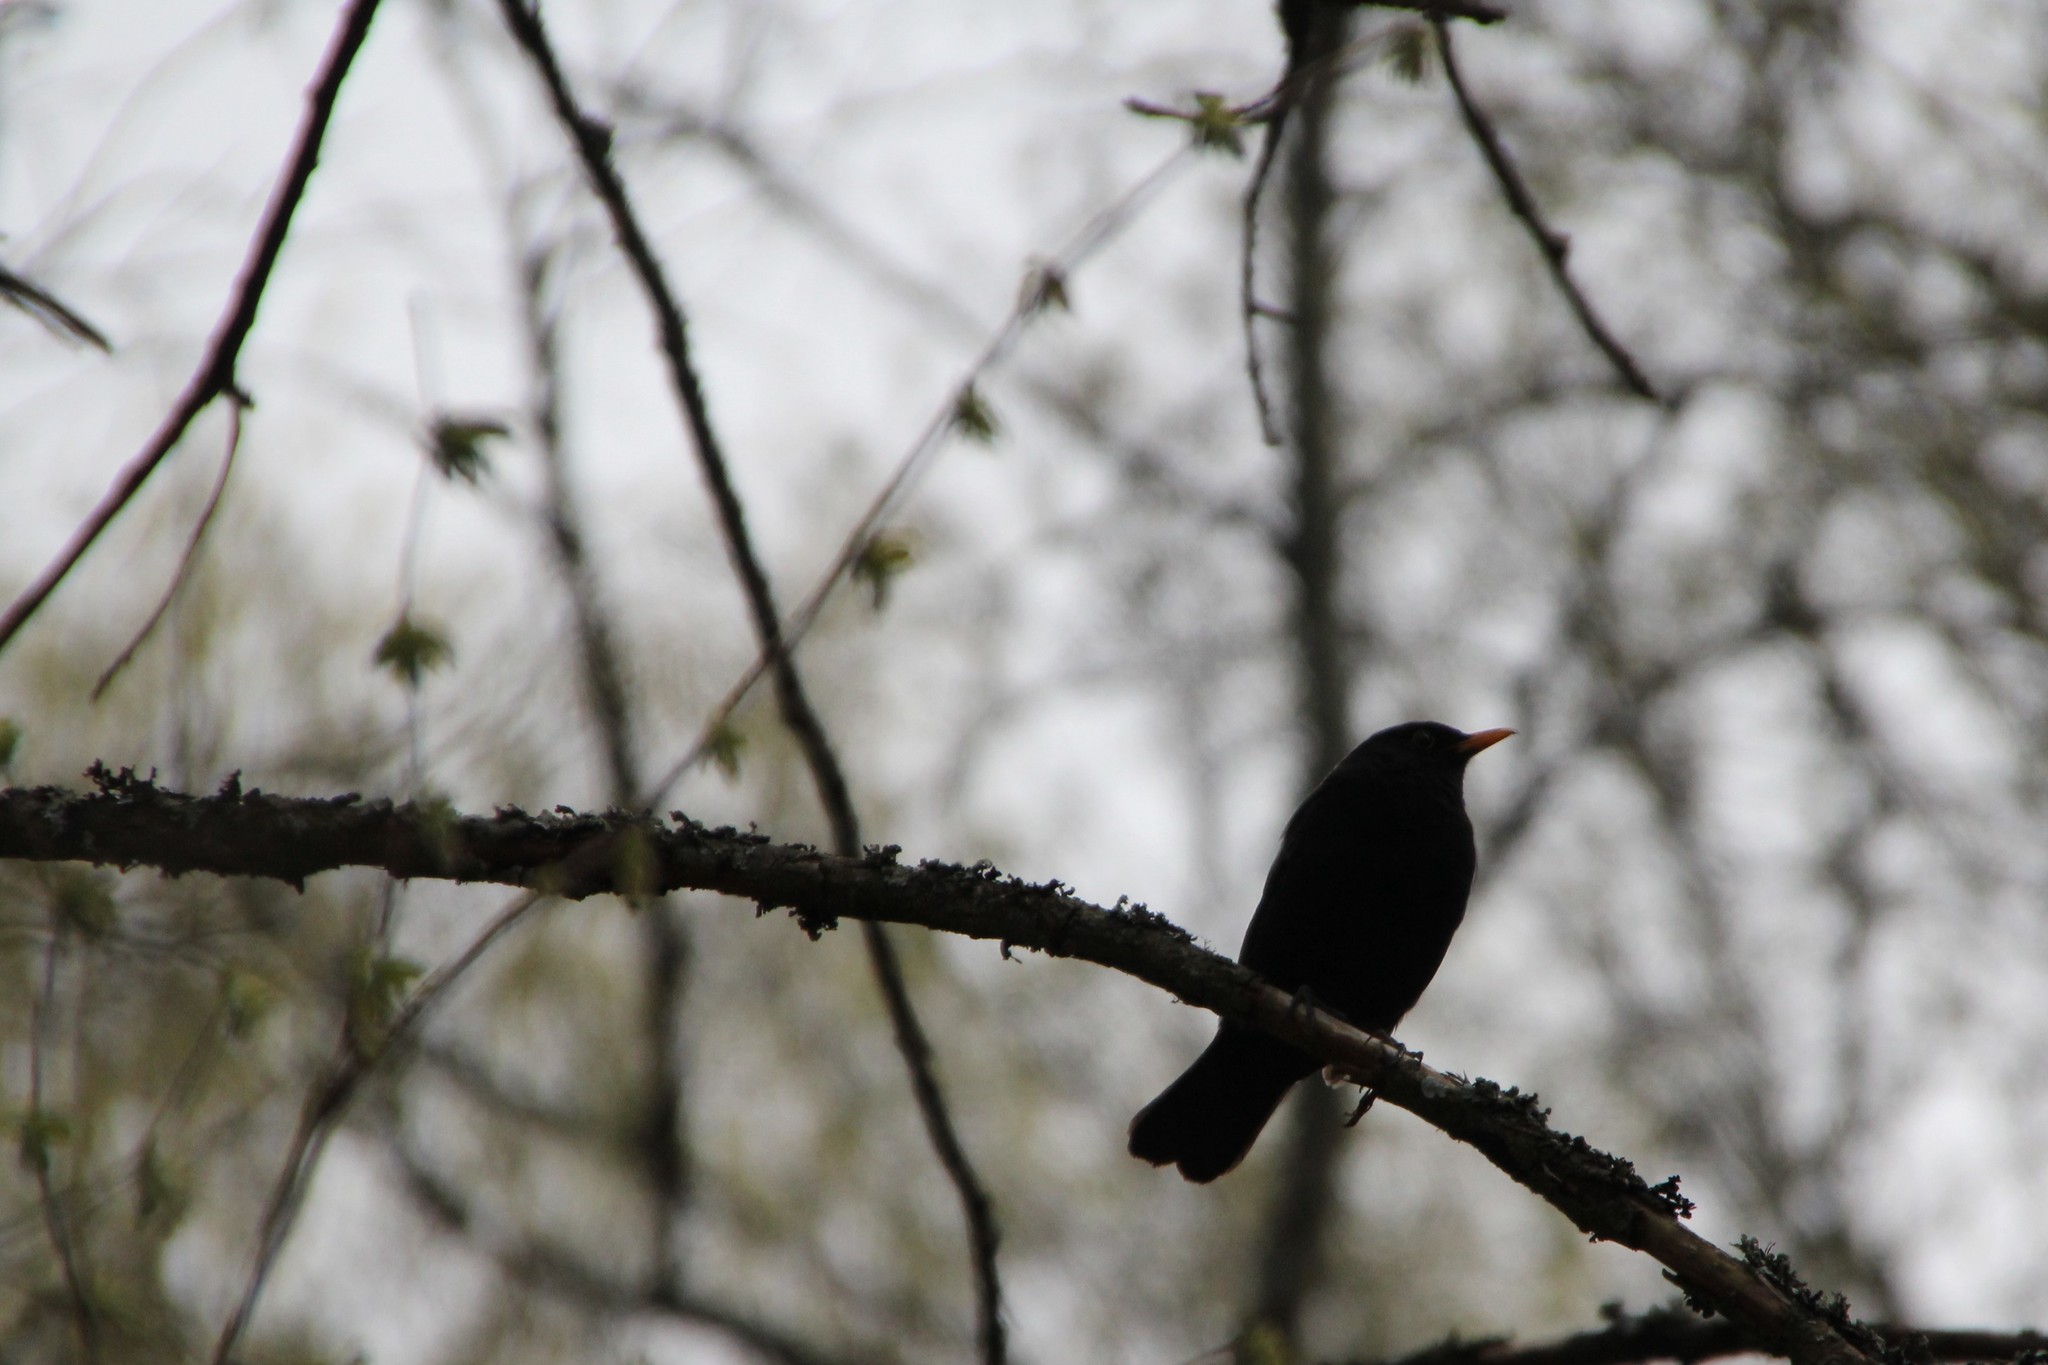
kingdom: Animalia
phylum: Chordata
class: Aves
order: Passeriformes
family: Turdidae
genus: Turdus
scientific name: Turdus merula
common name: Common blackbird
